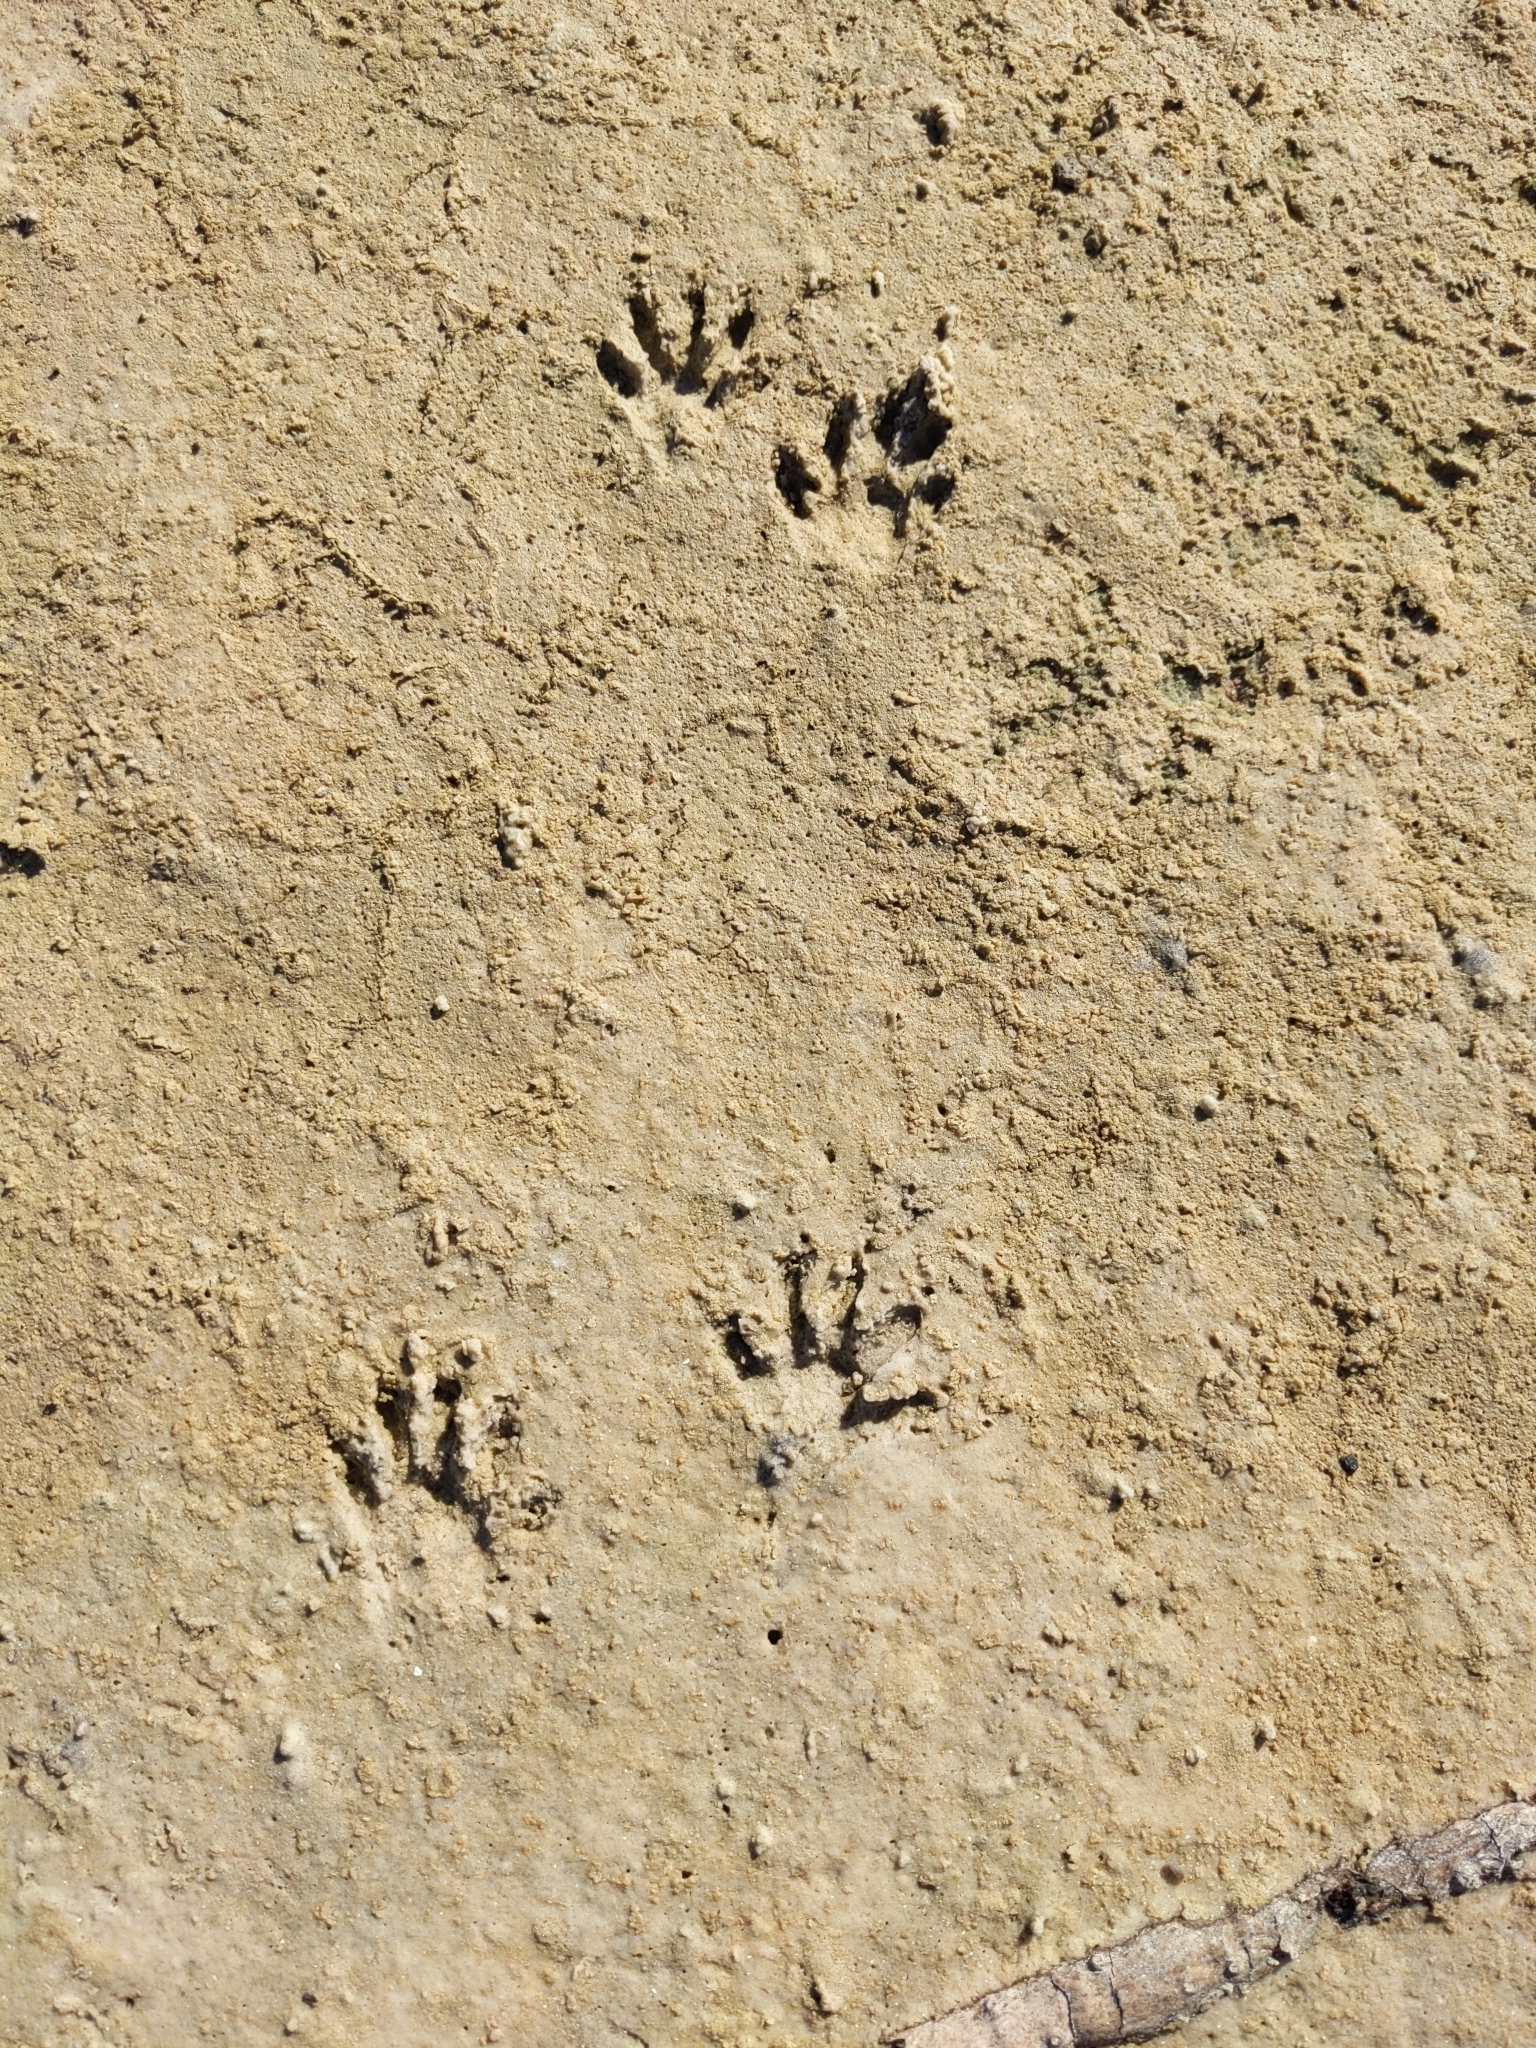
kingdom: Animalia
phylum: Chordata
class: Mammalia
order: Carnivora
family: Procyonidae
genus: Procyon
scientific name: Procyon lotor
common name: Raccoon
